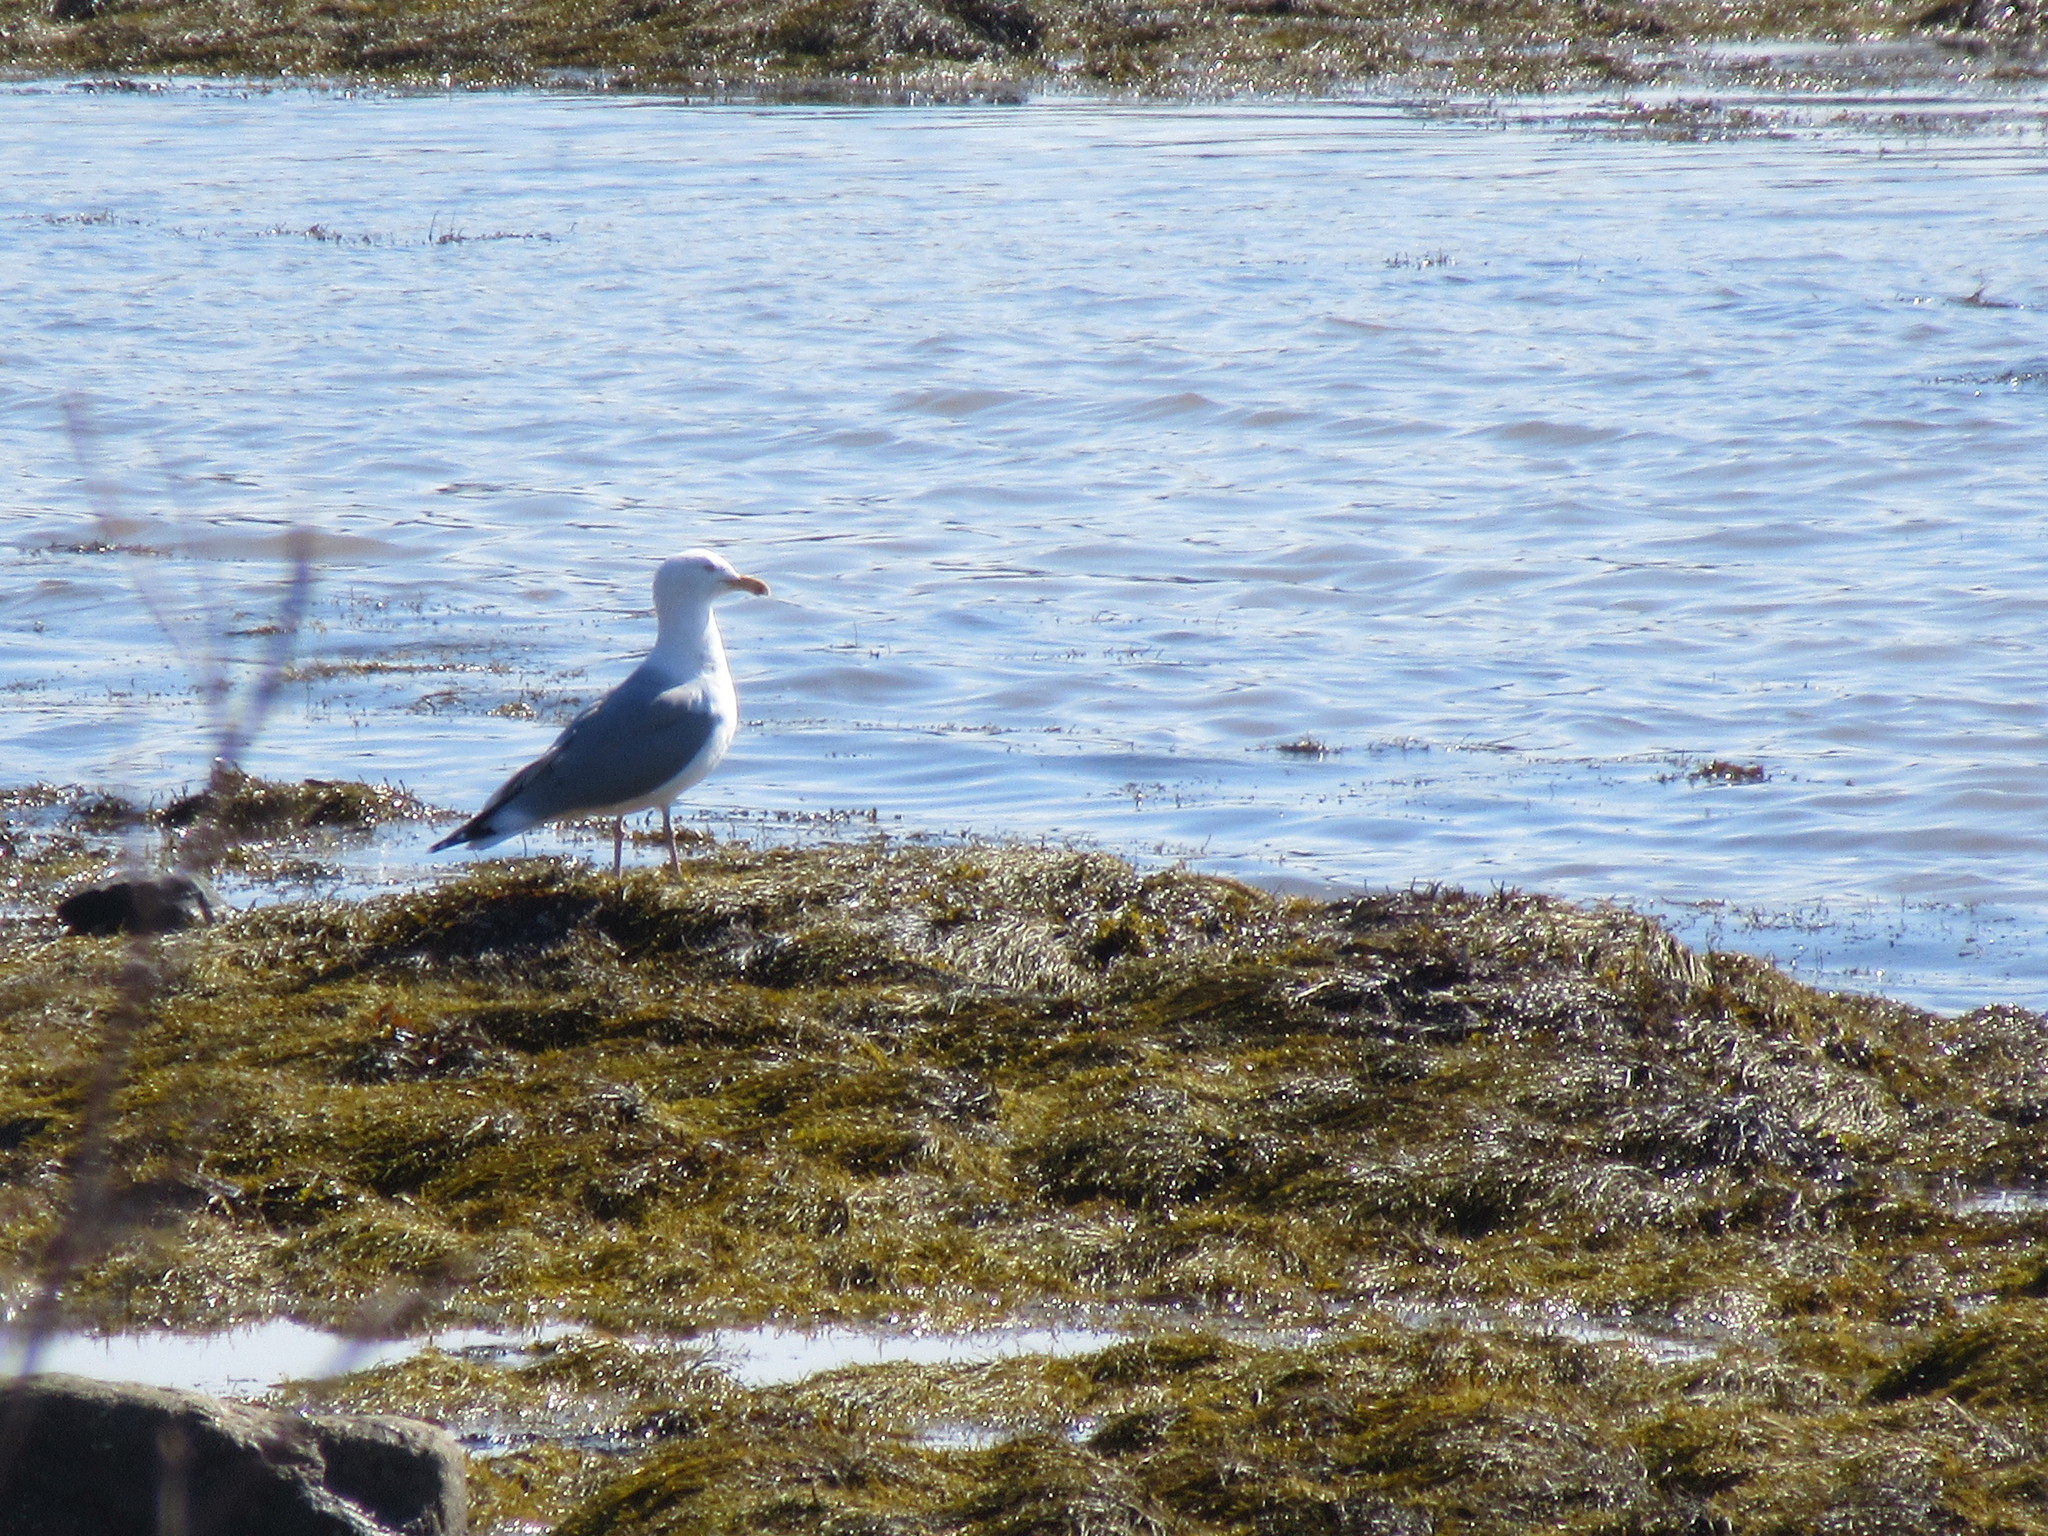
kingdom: Animalia
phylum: Chordata
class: Aves
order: Charadriiformes
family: Laridae
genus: Larus
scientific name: Larus argentatus
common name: Herring gull
